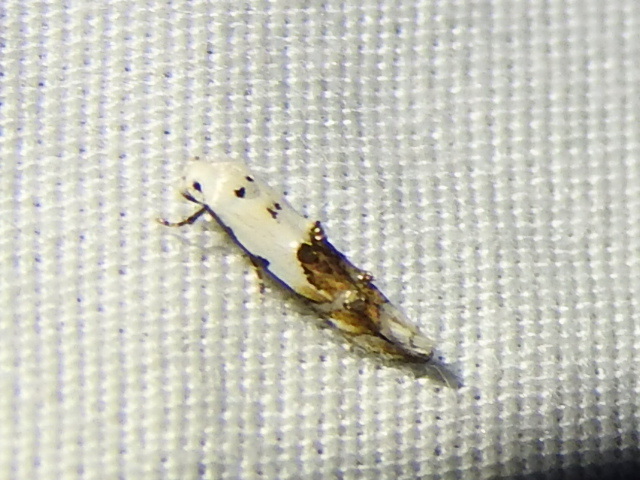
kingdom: Animalia
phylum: Arthropoda
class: Insecta
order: Lepidoptera
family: Momphidae
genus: Mompha
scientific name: Mompha eloisella
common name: Red-streaked mompha moth
